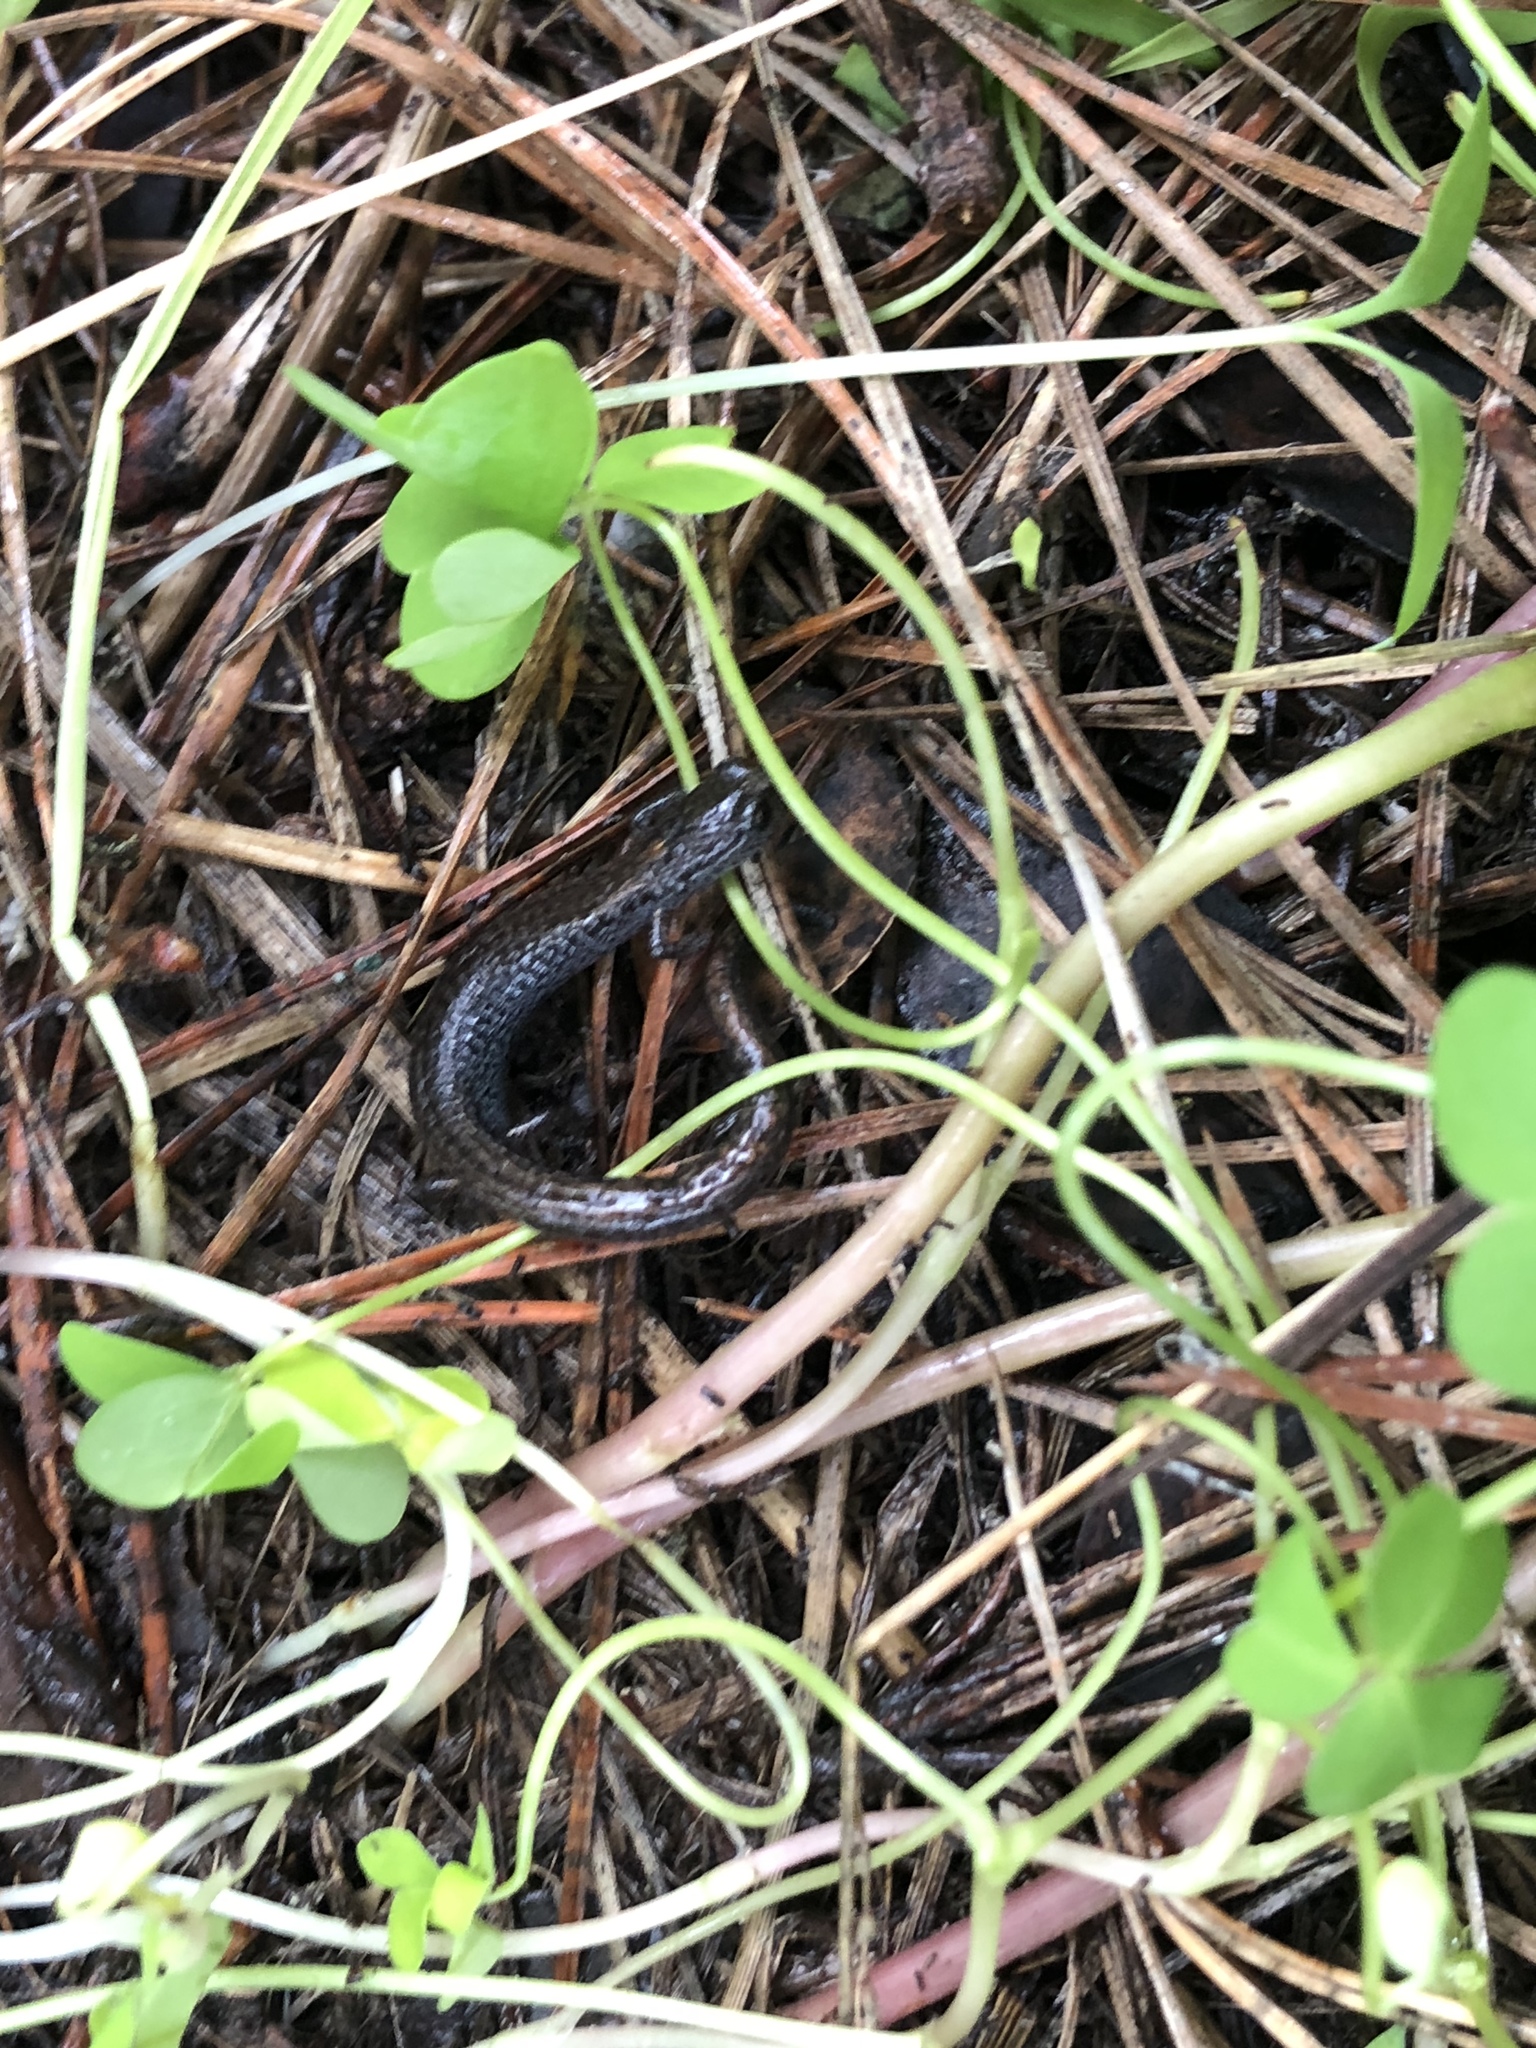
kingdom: Animalia
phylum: Chordata
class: Amphibia
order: Caudata
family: Plethodontidae
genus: Batrachoseps
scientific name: Batrachoseps attenuatus
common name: California slender salamander
